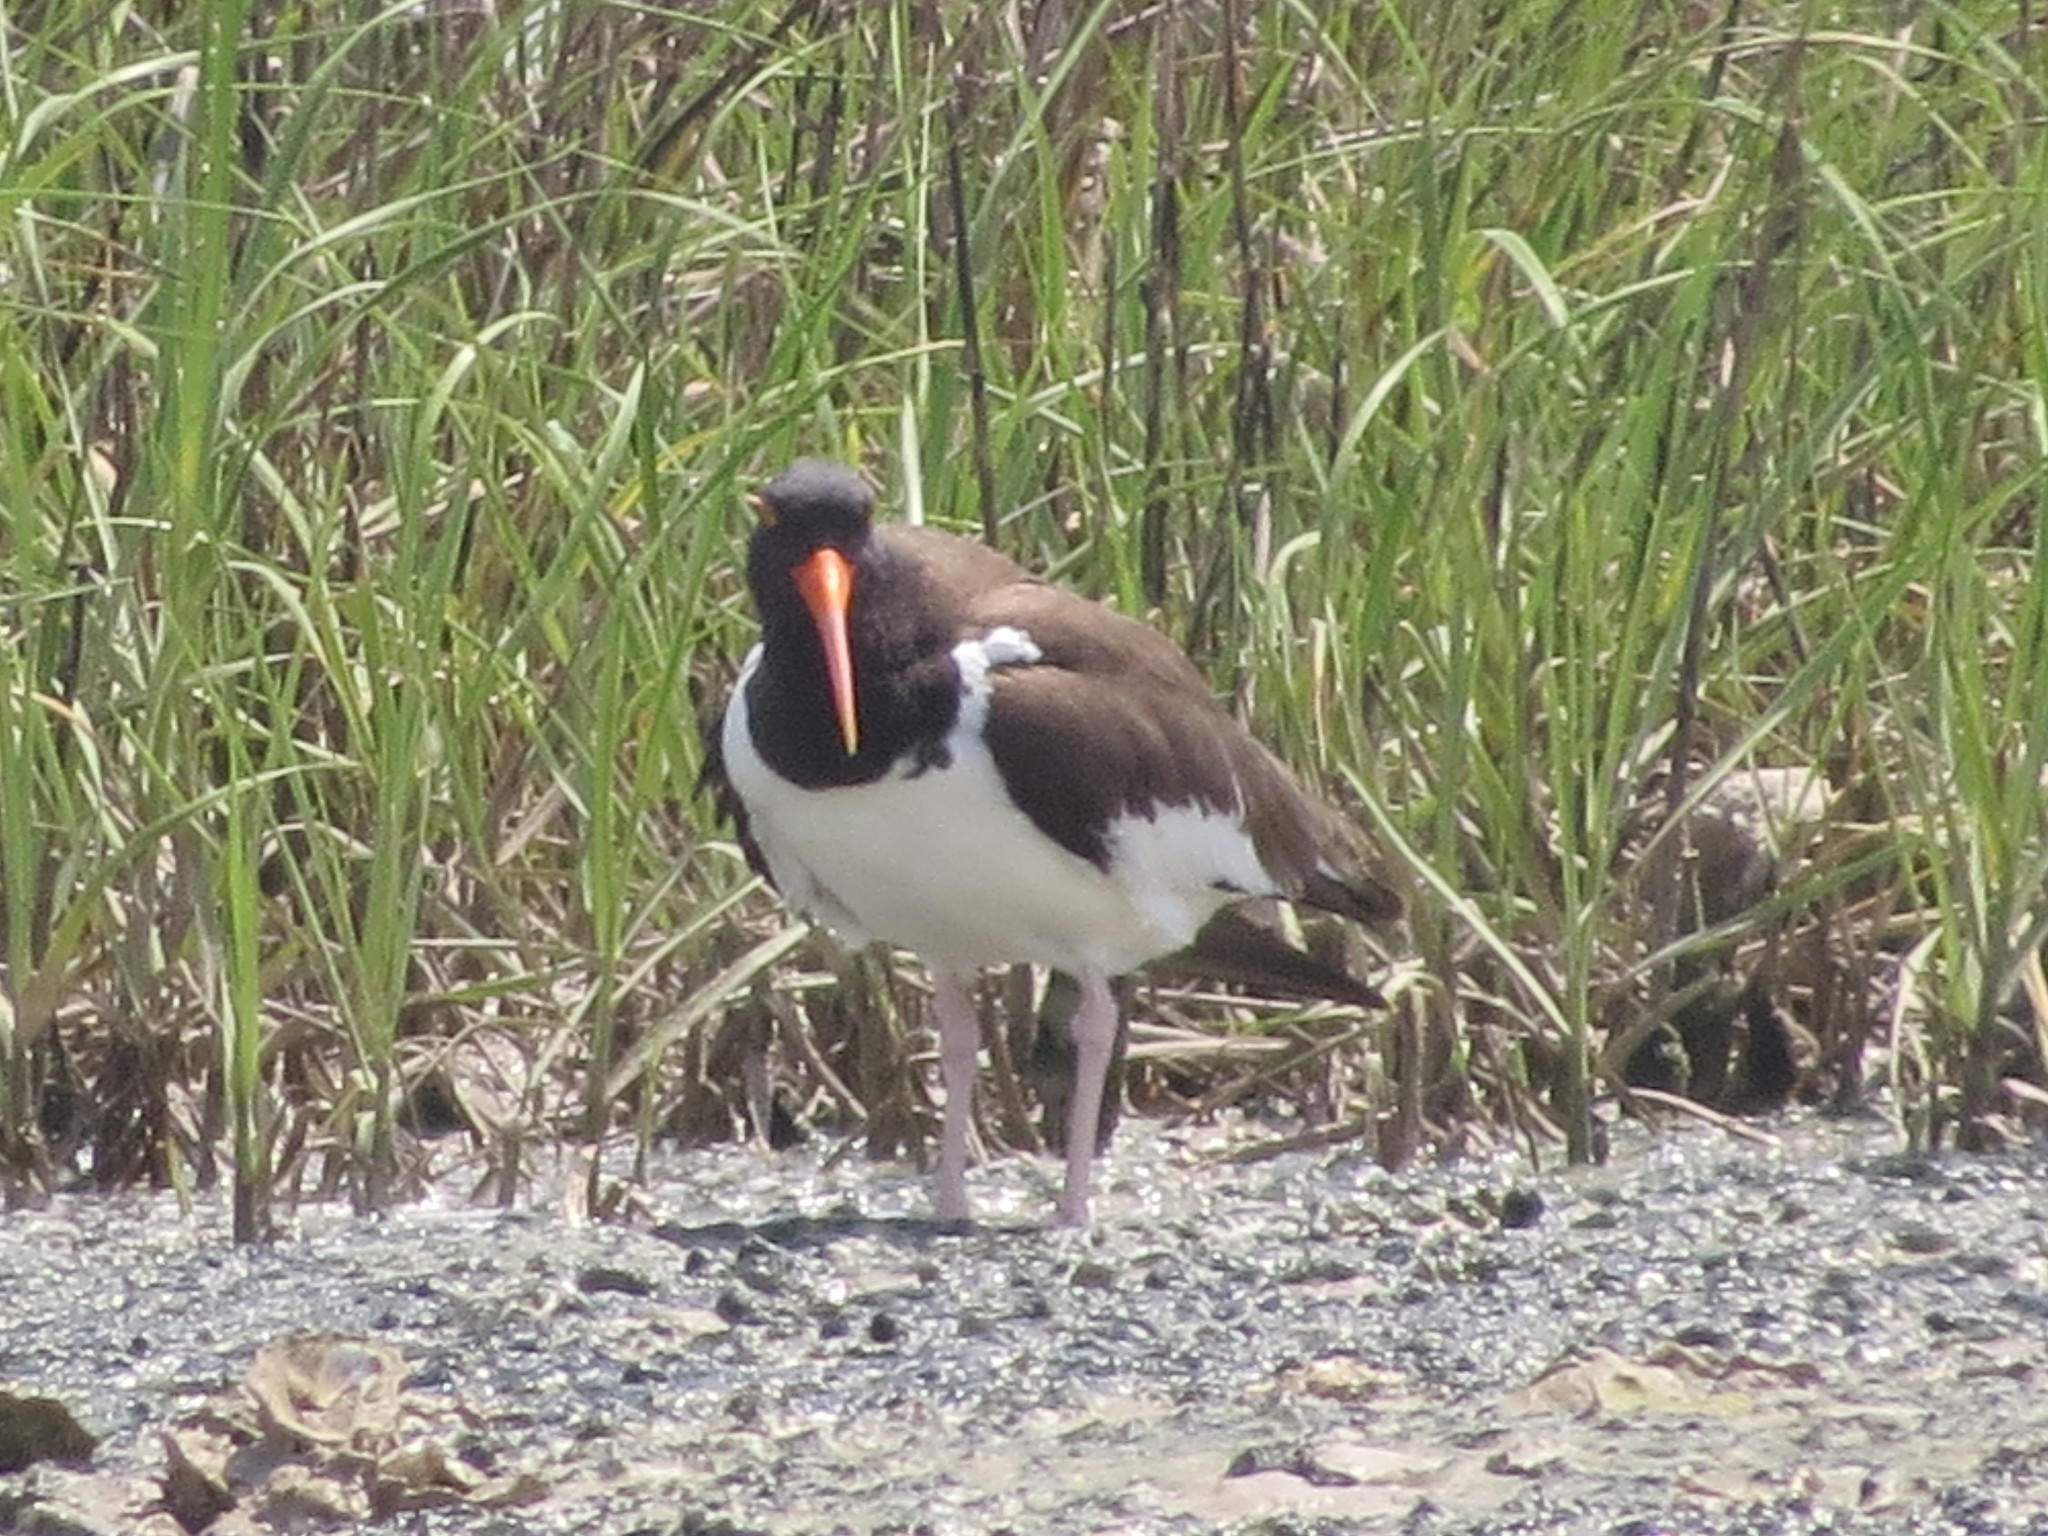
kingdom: Animalia
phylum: Chordata
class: Aves
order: Charadriiformes
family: Haematopodidae
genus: Haematopus
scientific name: Haematopus palliatus
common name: American oystercatcher
